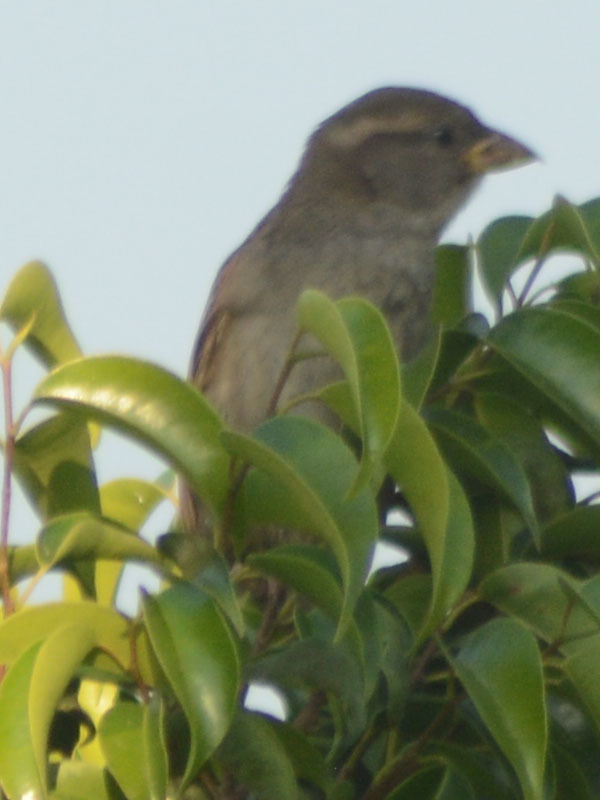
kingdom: Animalia
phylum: Chordata
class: Aves
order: Passeriformes
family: Passeridae
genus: Passer
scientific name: Passer domesticus
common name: House sparrow
